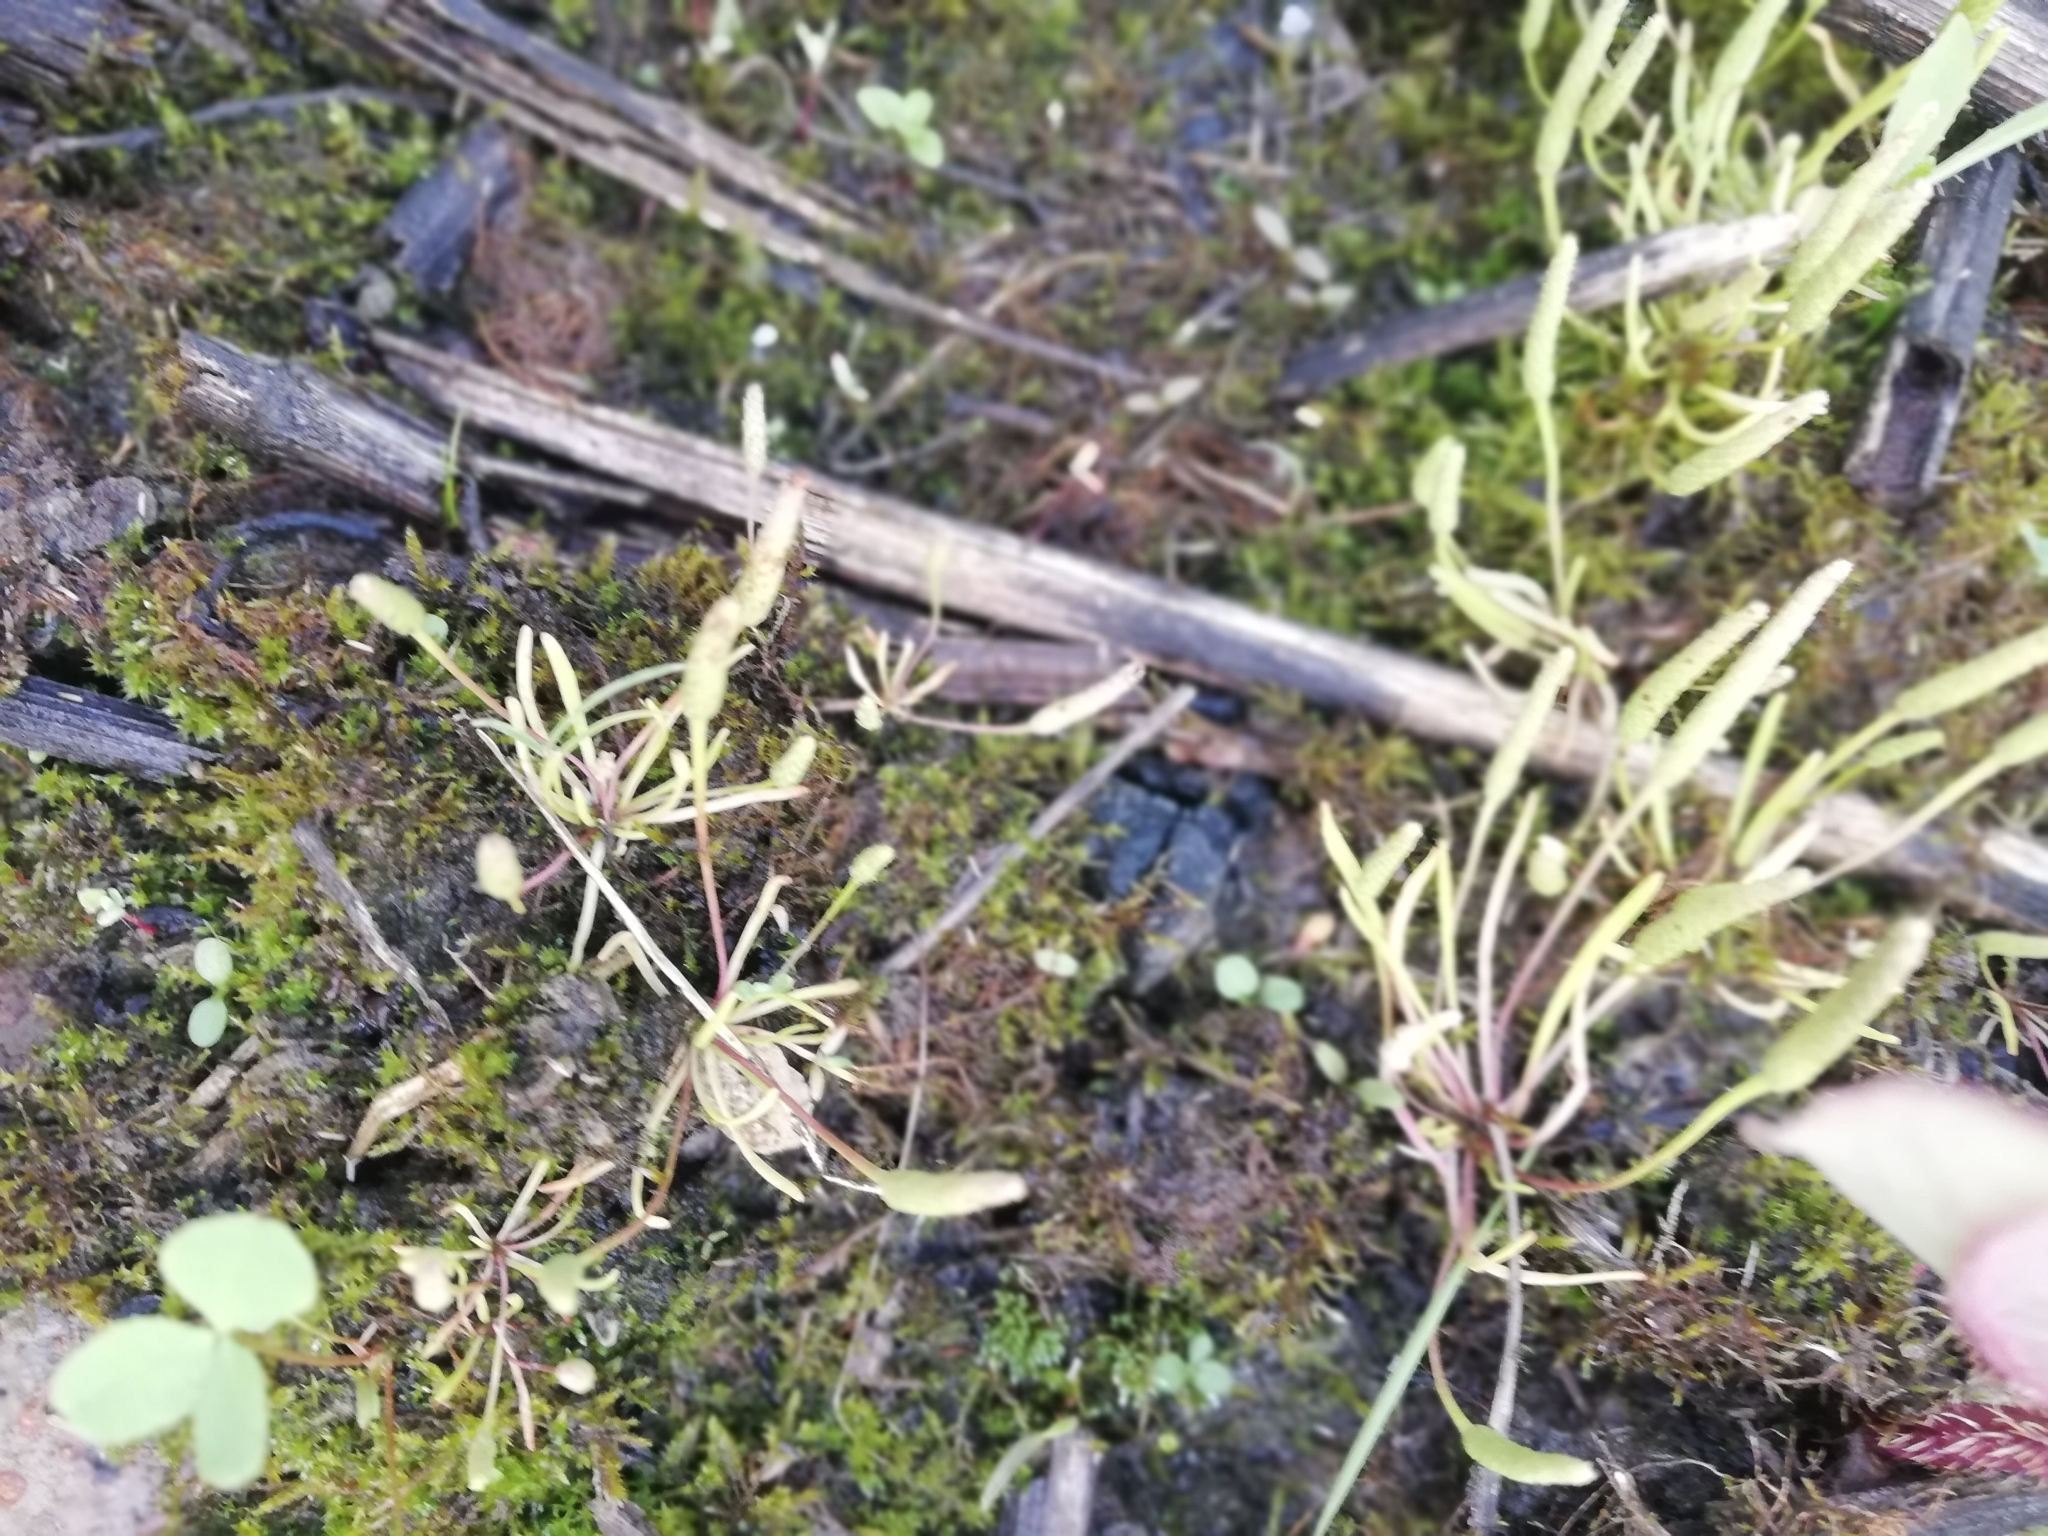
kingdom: Plantae
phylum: Tracheophyta
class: Magnoliopsida
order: Ranunculales
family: Ranunculaceae
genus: Myosurus
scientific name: Myosurus minimus
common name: Mousetail
